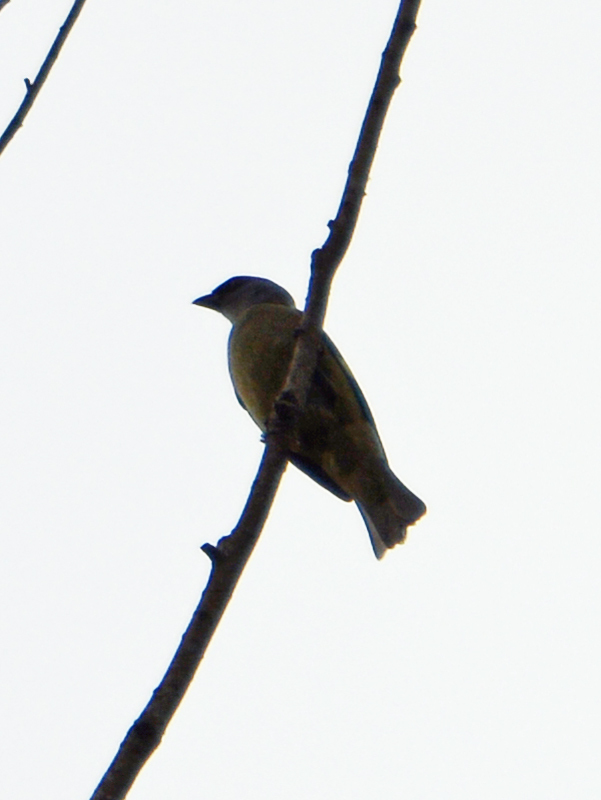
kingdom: Animalia
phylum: Chordata
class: Aves
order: Passeriformes
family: Thraupidae
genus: Thraupis
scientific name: Thraupis abbas
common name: Yellow-winged tanager
